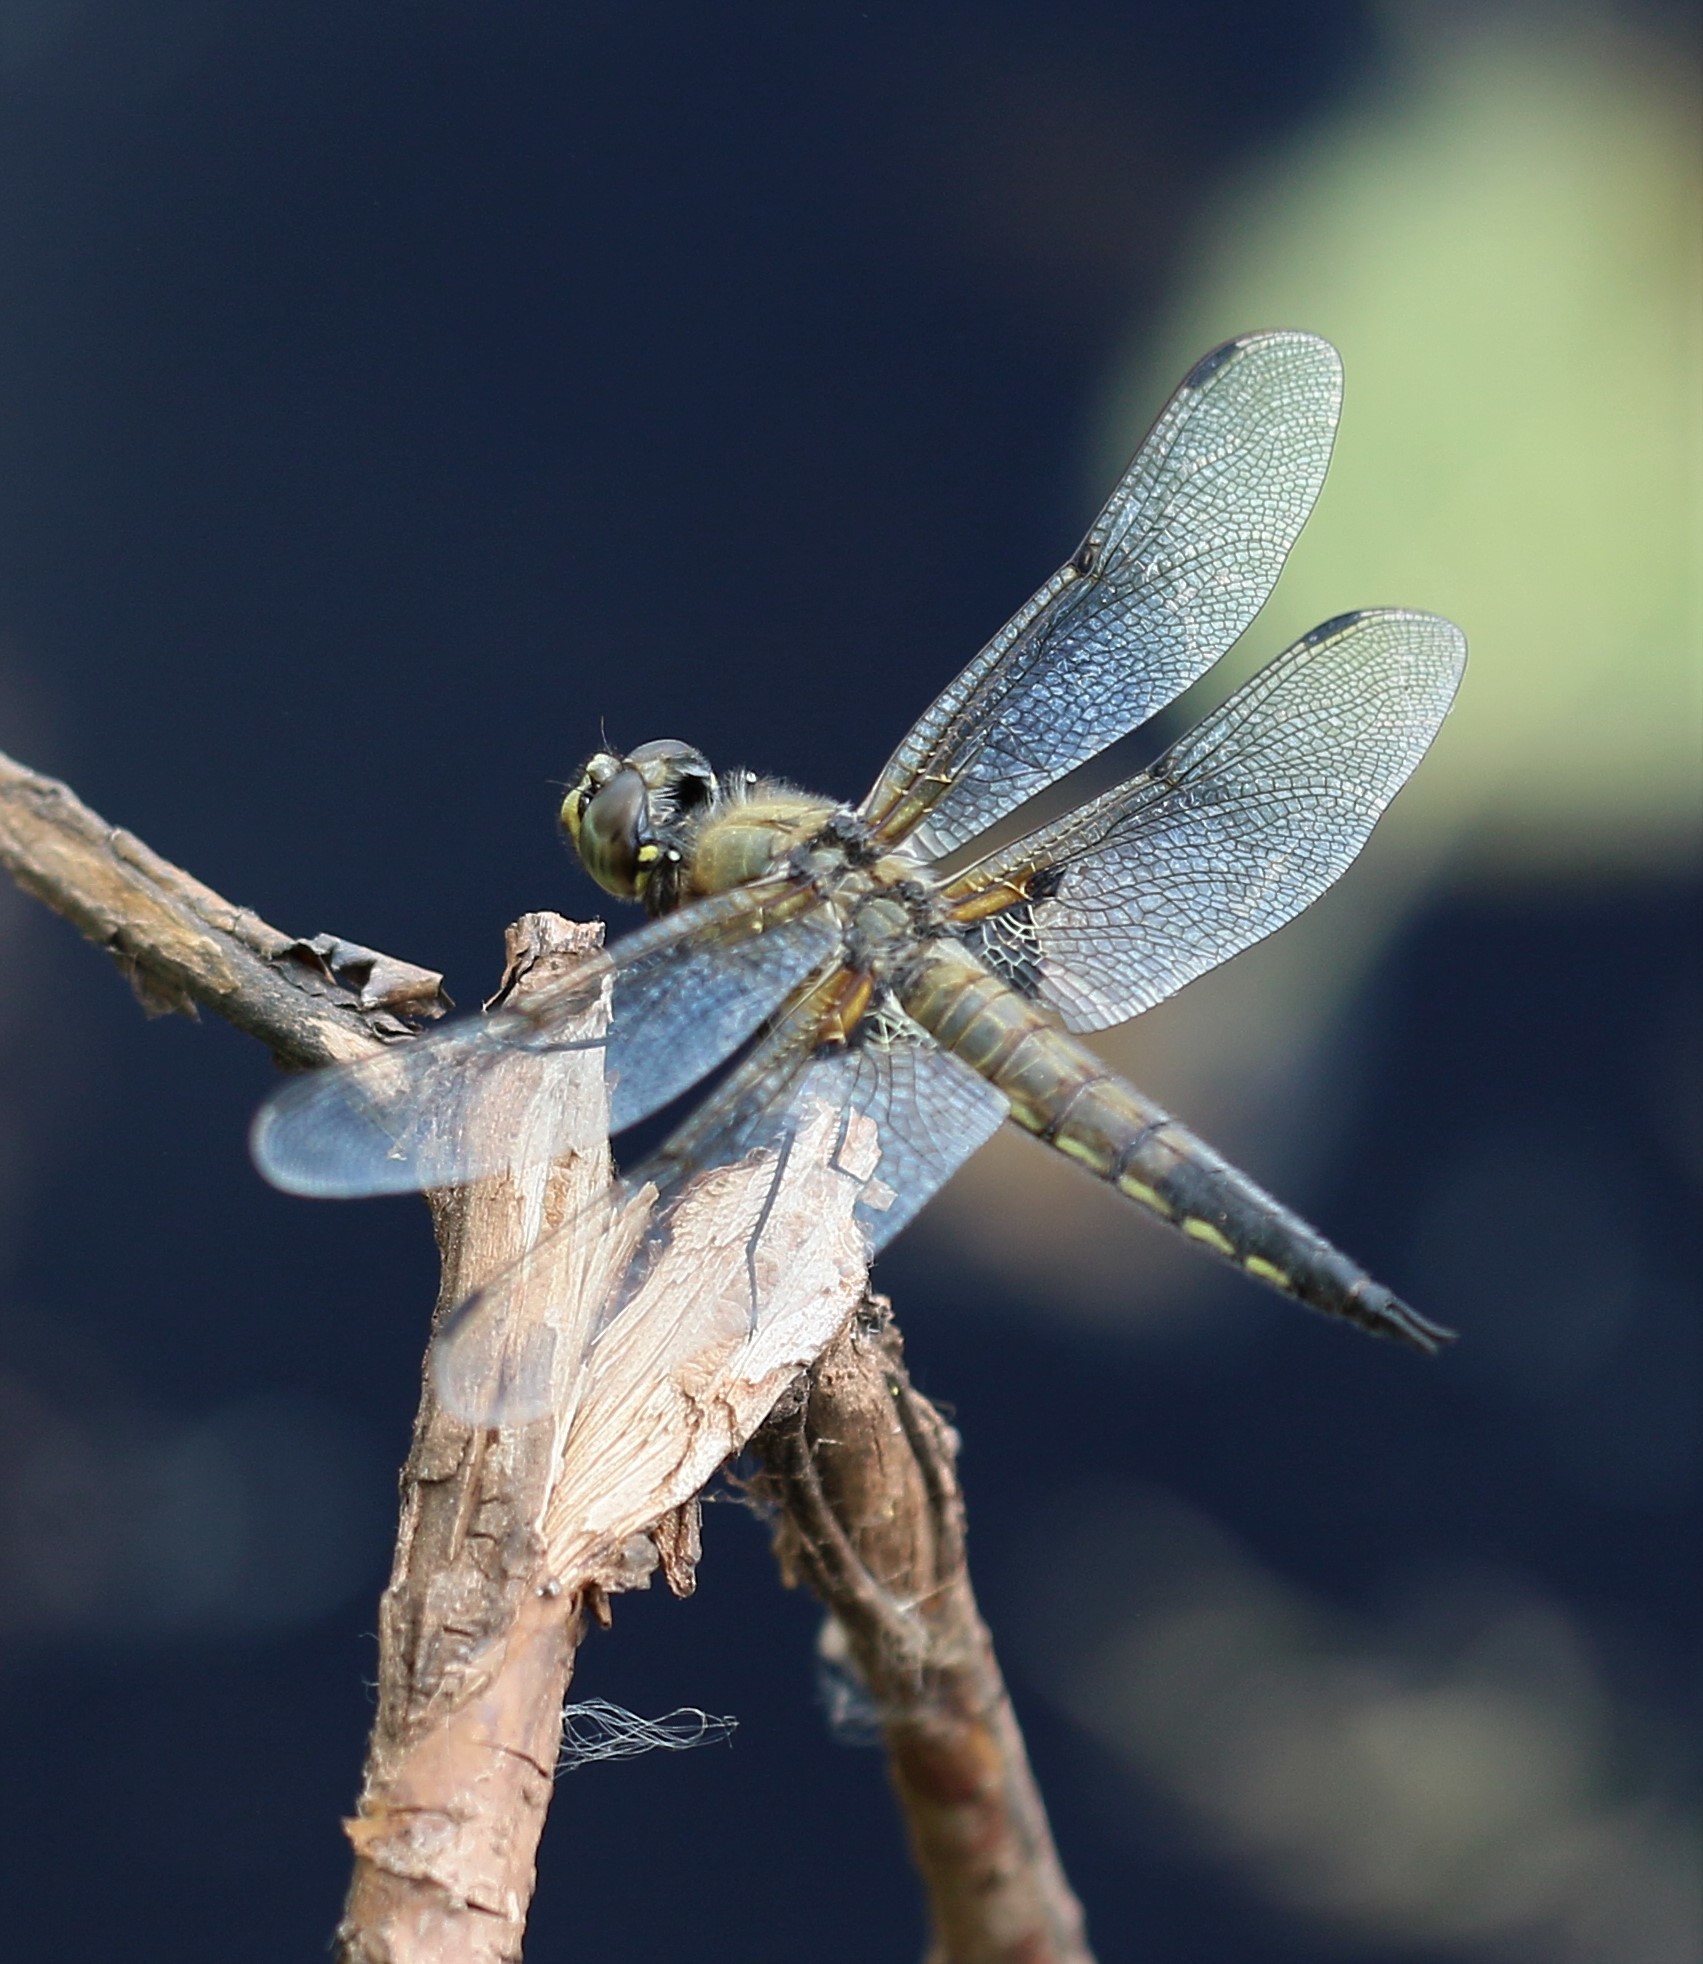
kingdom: Animalia
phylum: Arthropoda
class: Insecta
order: Odonata
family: Libellulidae
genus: Libellula
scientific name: Libellula quadrimaculata
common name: Four-spotted chaser
